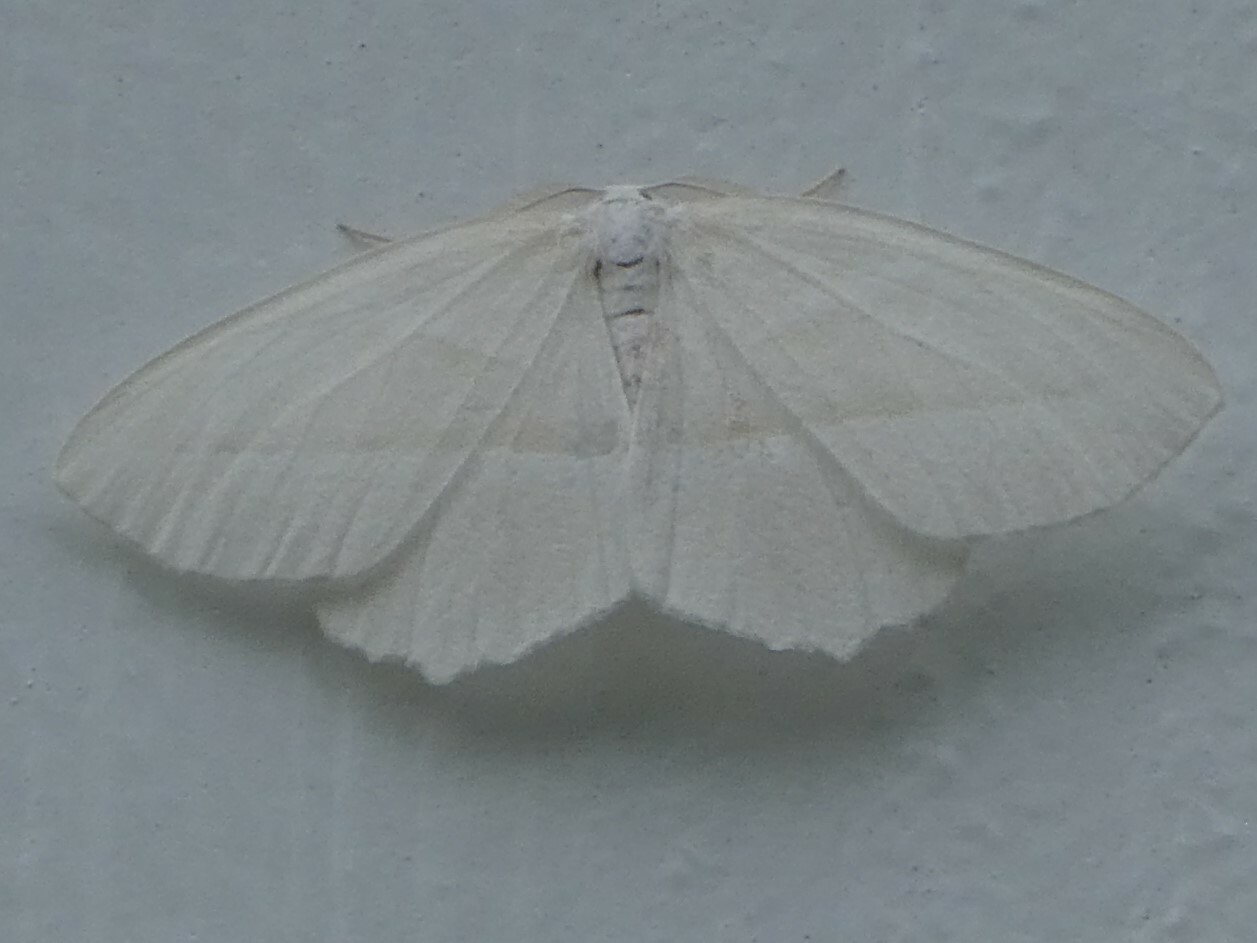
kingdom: Animalia
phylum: Arthropoda
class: Insecta
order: Lepidoptera
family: Geometridae
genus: Campaea
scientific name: Campaea perlata
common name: Fringed looper
